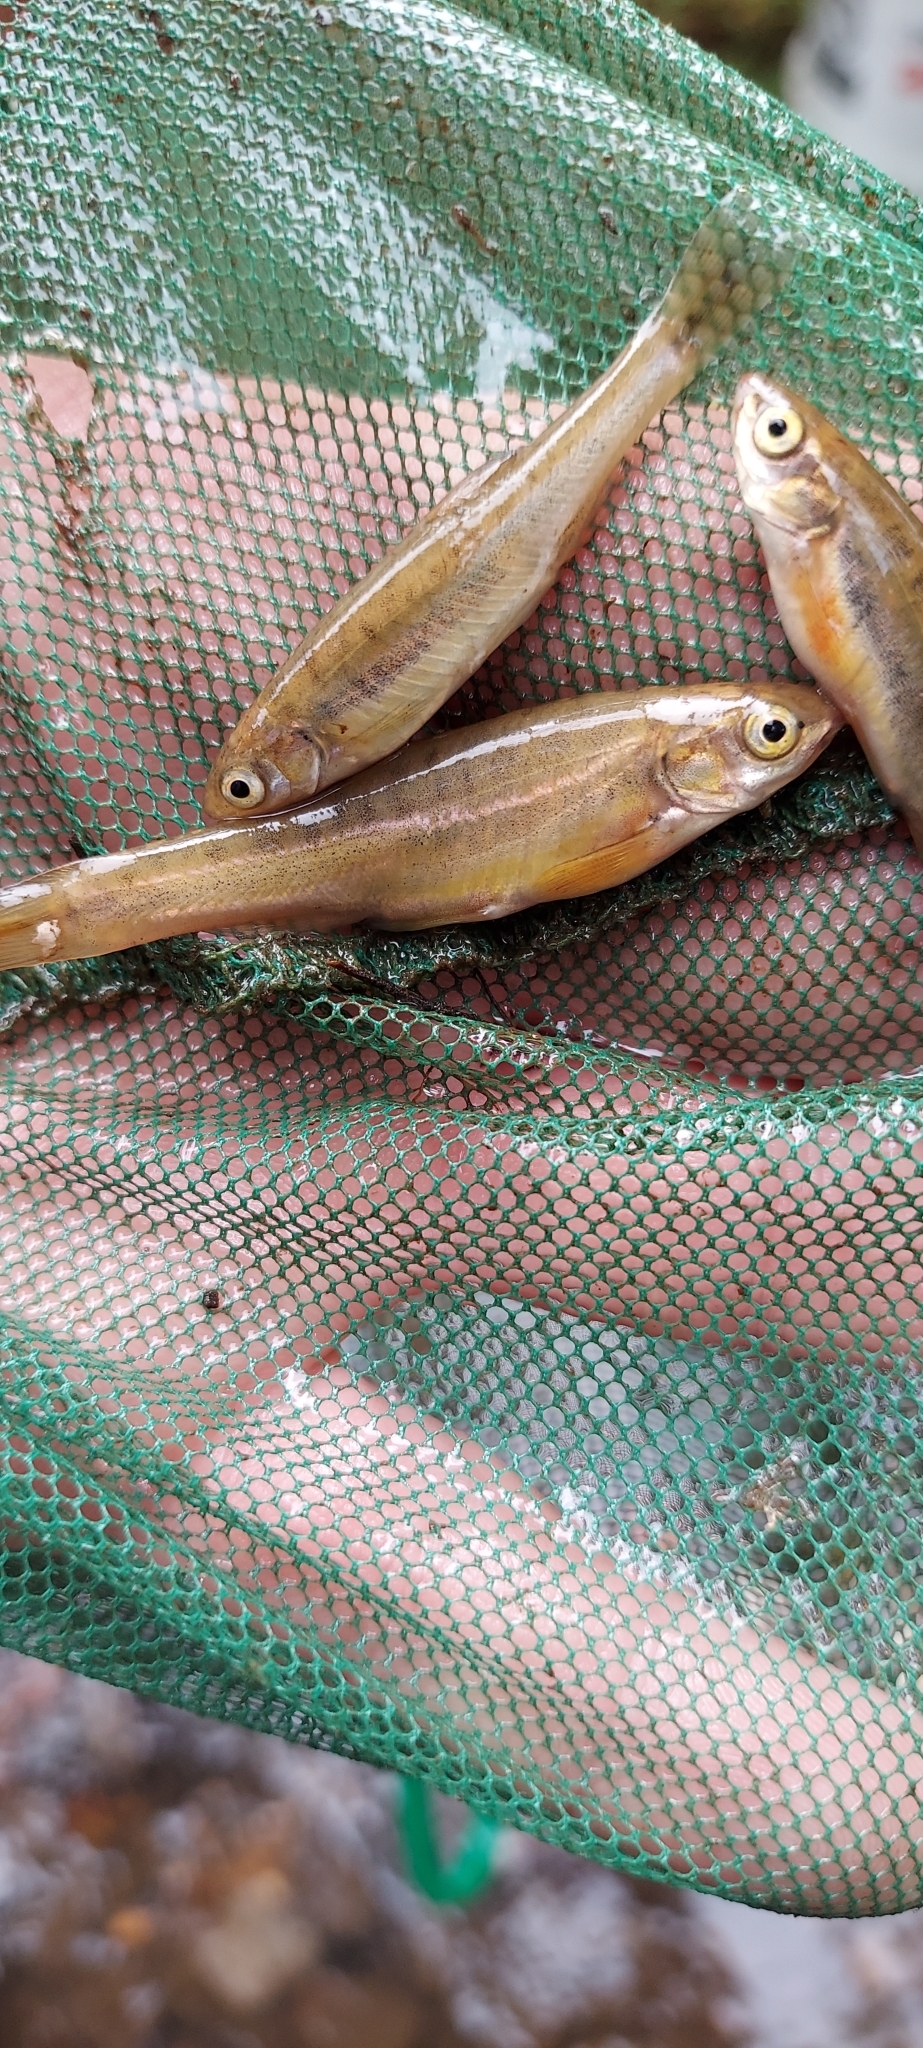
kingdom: Animalia
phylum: Chordata
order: Cypriniformes
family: Cyprinidae
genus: Chrosomus
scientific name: Chrosomus oreas
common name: Mountain redbelly dace
